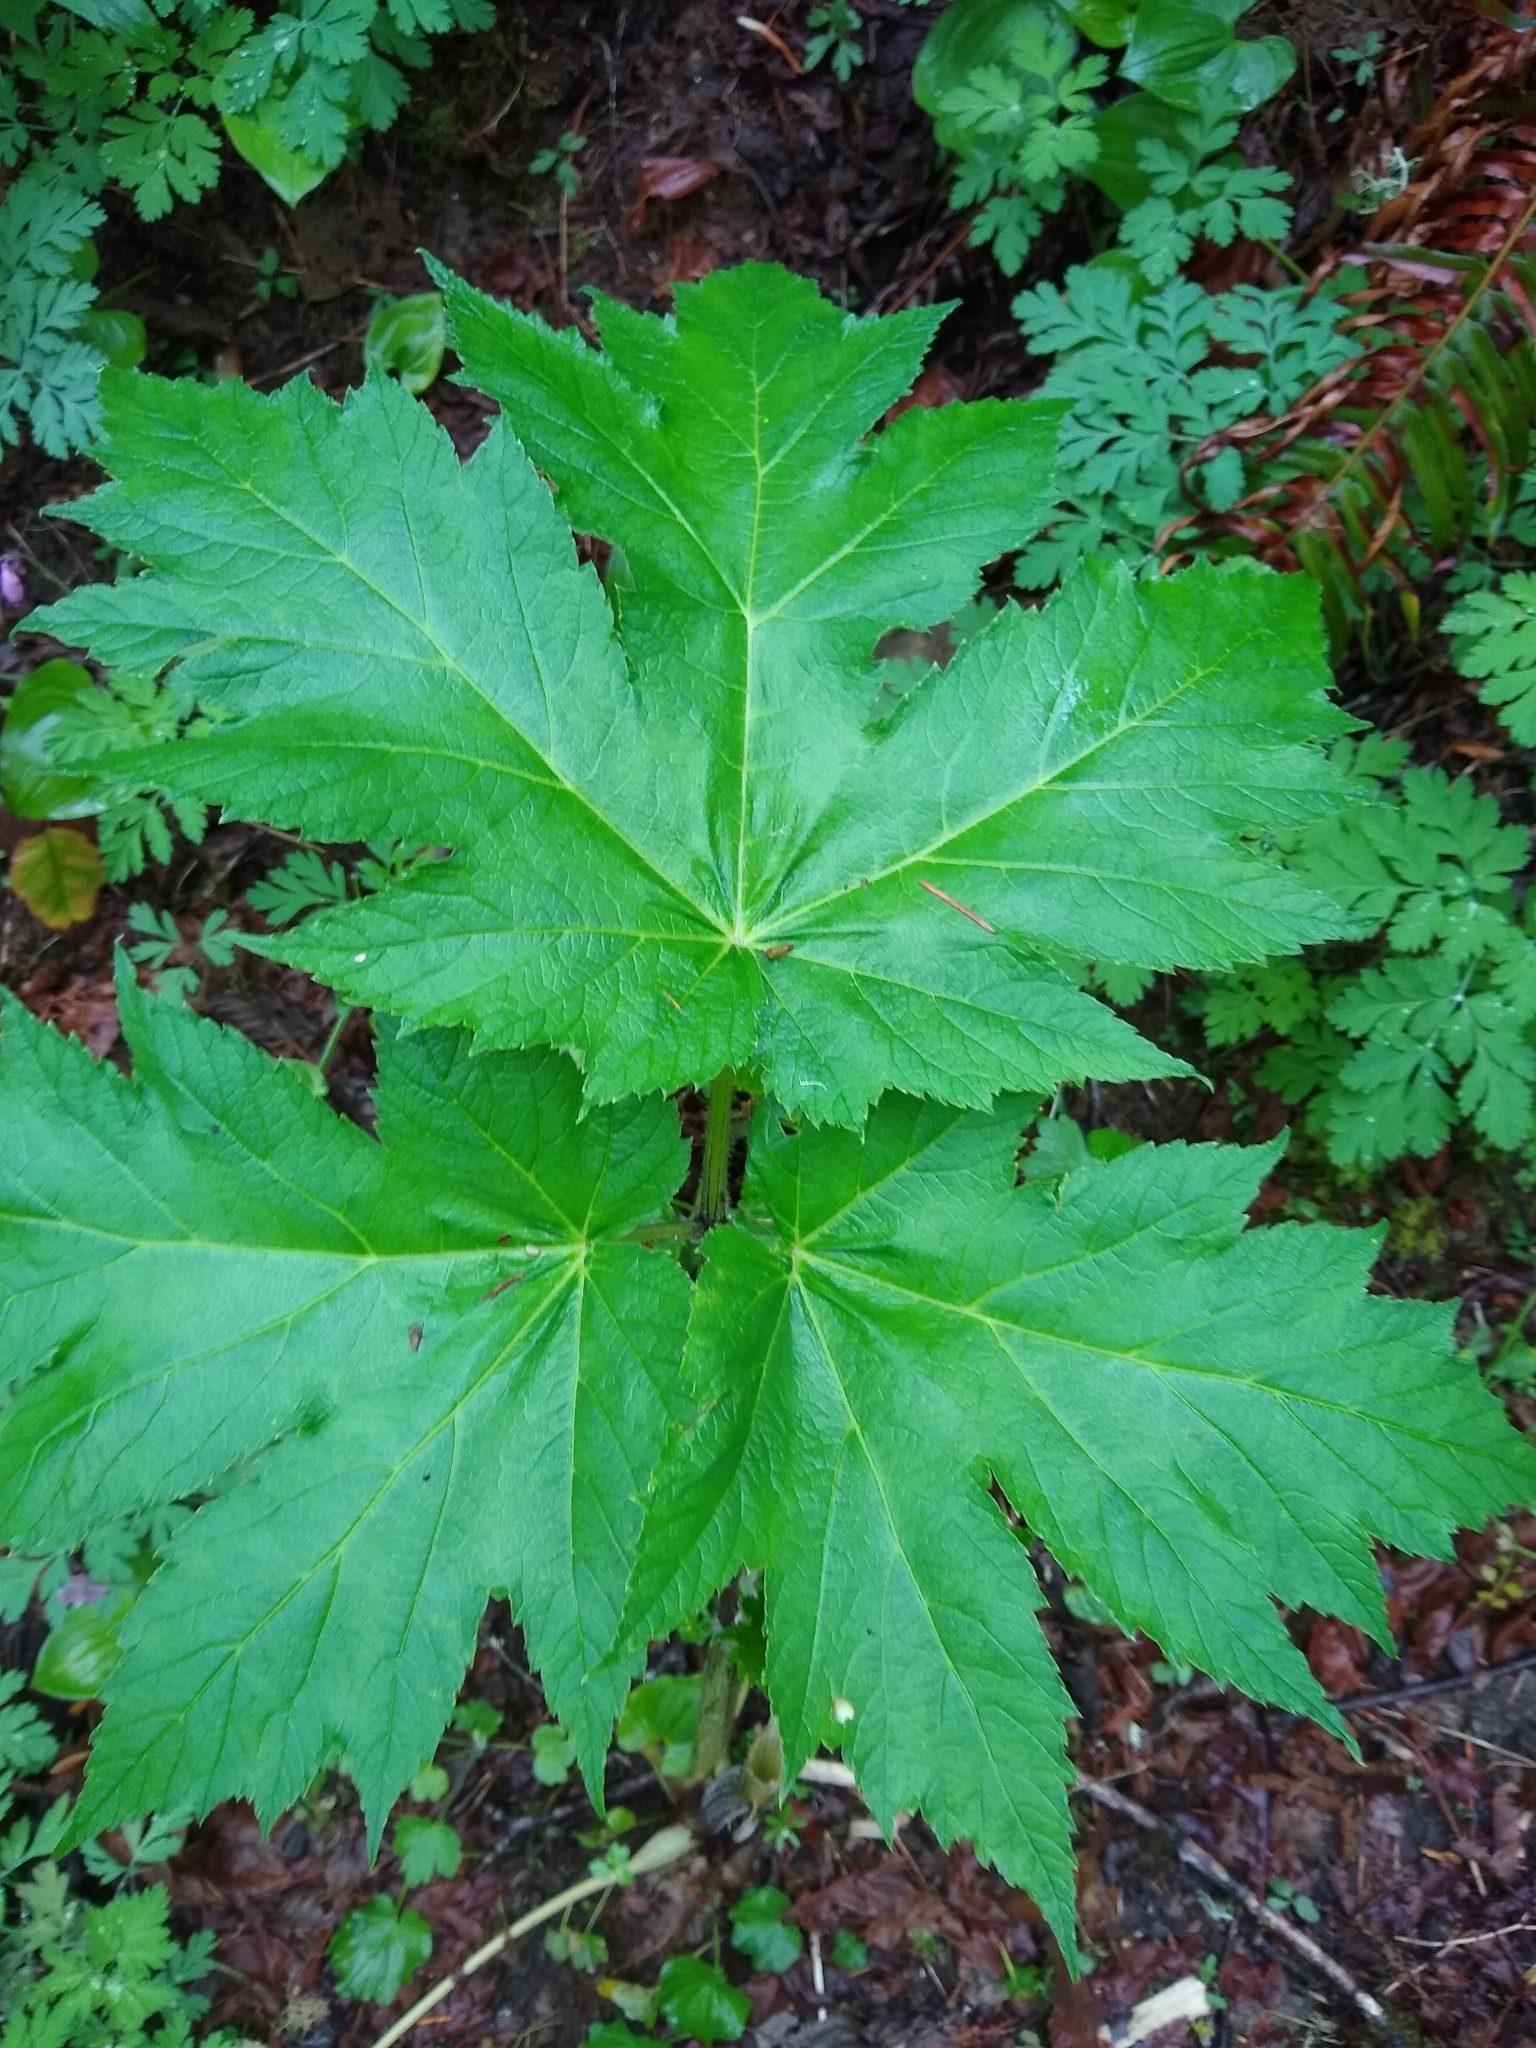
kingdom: Plantae
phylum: Tracheophyta
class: Magnoliopsida
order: Apiales
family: Apiaceae
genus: Heracleum
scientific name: Heracleum maximum
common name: American cow parsnip
